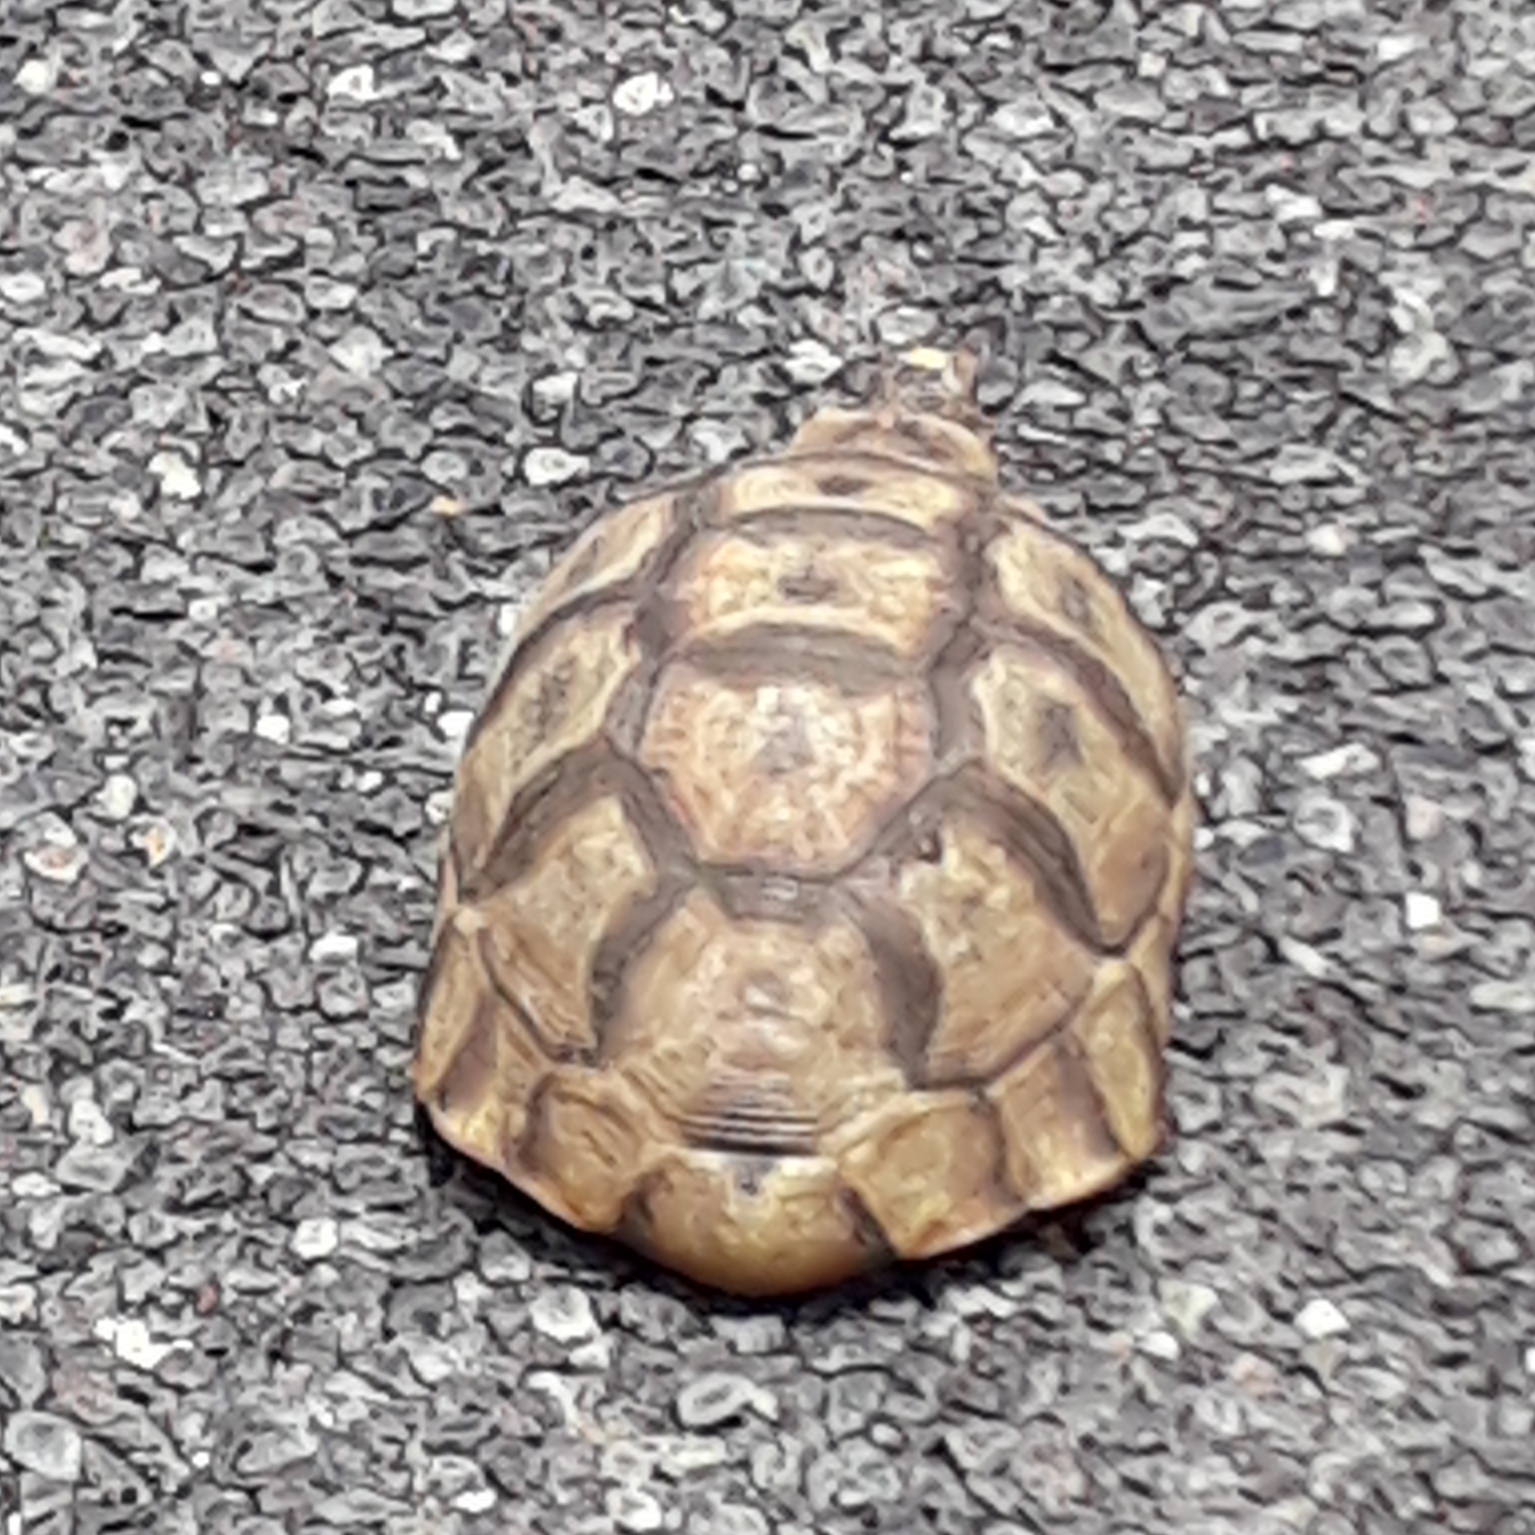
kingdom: Animalia
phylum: Chordata
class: Testudines
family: Testudinidae
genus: Chersina
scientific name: Chersina angulata
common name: South african bowsprit tortoise
